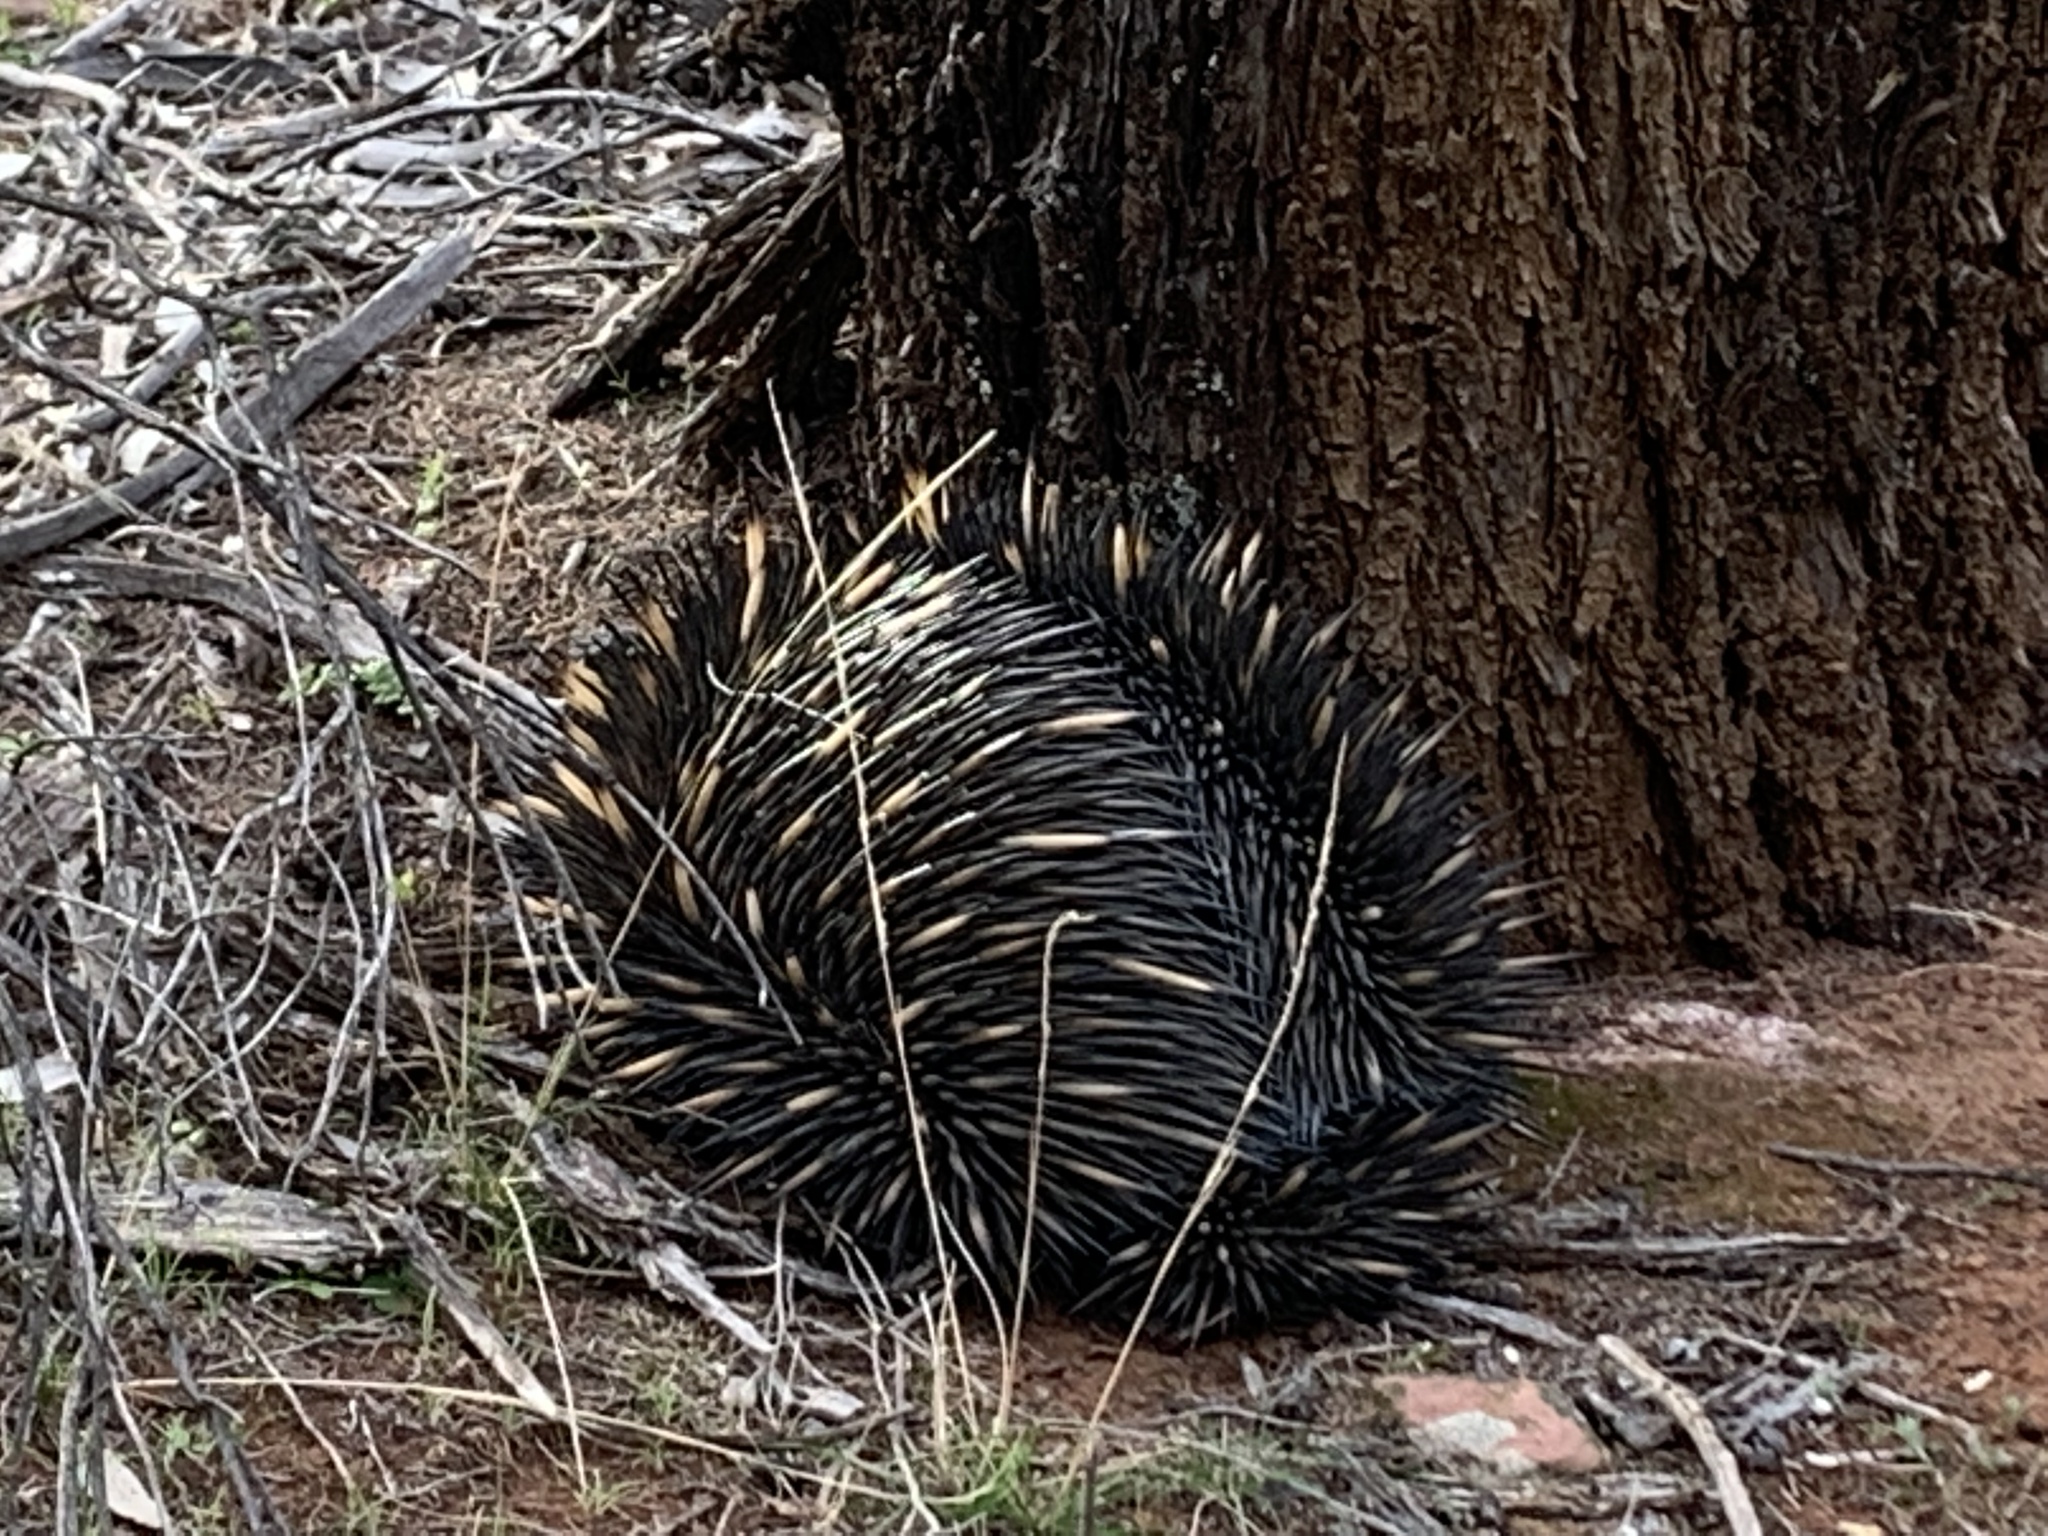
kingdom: Animalia
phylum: Chordata
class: Mammalia
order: Monotremata
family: Tachyglossidae
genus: Tachyglossus
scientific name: Tachyglossus aculeatus
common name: Short-beaked echidna
